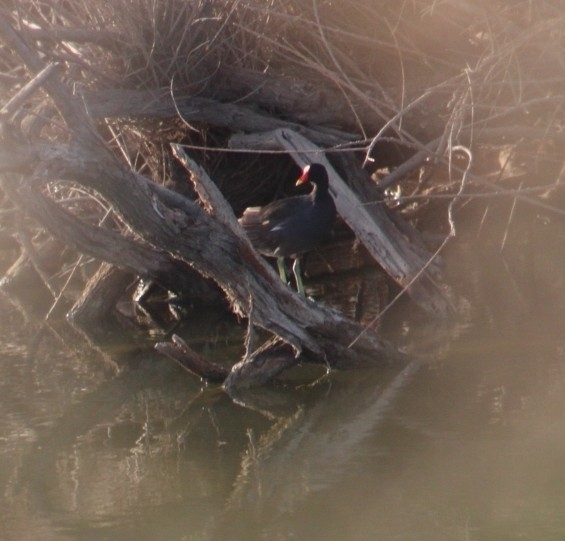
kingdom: Animalia
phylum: Chordata
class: Aves
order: Gruiformes
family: Rallidae
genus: Gallinula
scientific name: Gallinula chloropus
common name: Common moorhen
